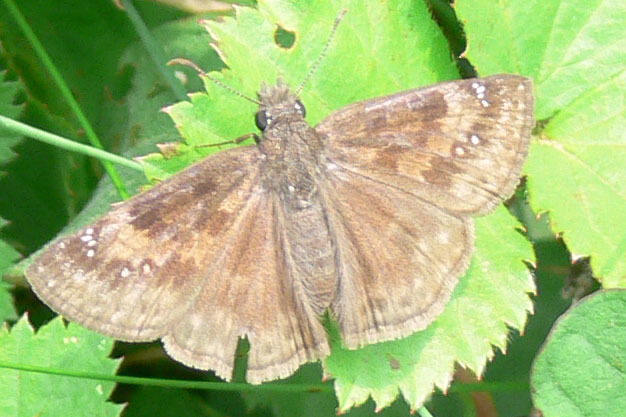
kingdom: Animalia
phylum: Arthropoda
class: Insecta
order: Lepidoptera
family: Hesperiidae
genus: Erynnis
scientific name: Erynnis baptisiae
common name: Wild indigo duskywing
